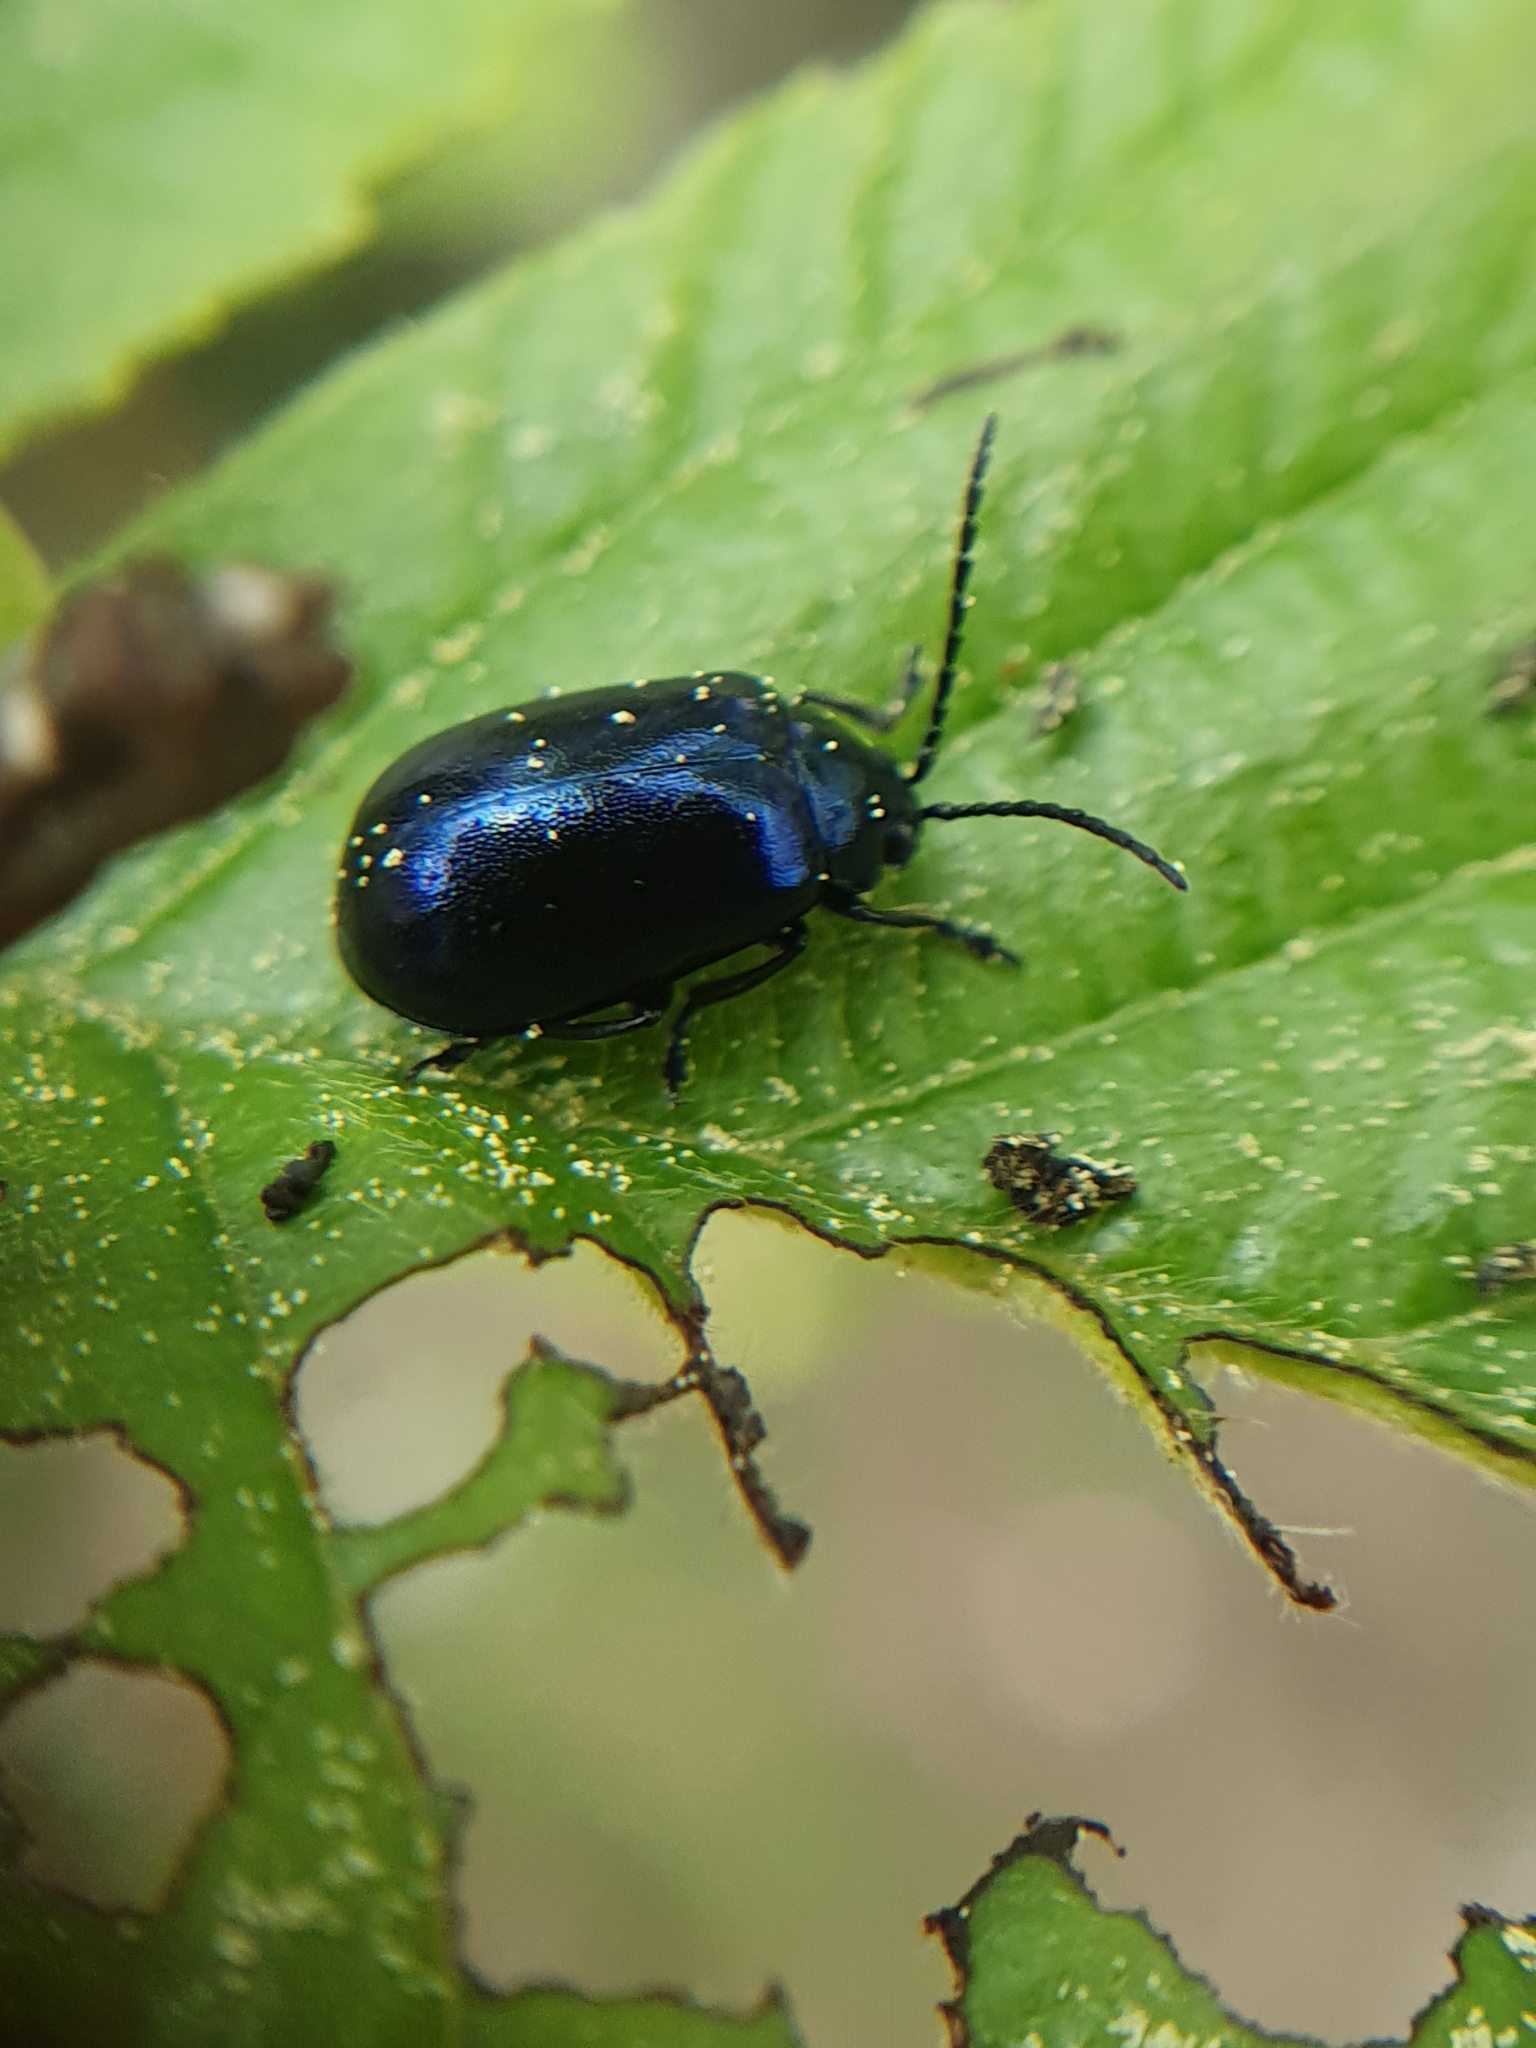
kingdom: Animalia
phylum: Arthropoda
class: Insecta
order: Coleoptera
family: Chrysomelidae
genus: Agelastica
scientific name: Agelastica alni
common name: Alder leaf beetle
